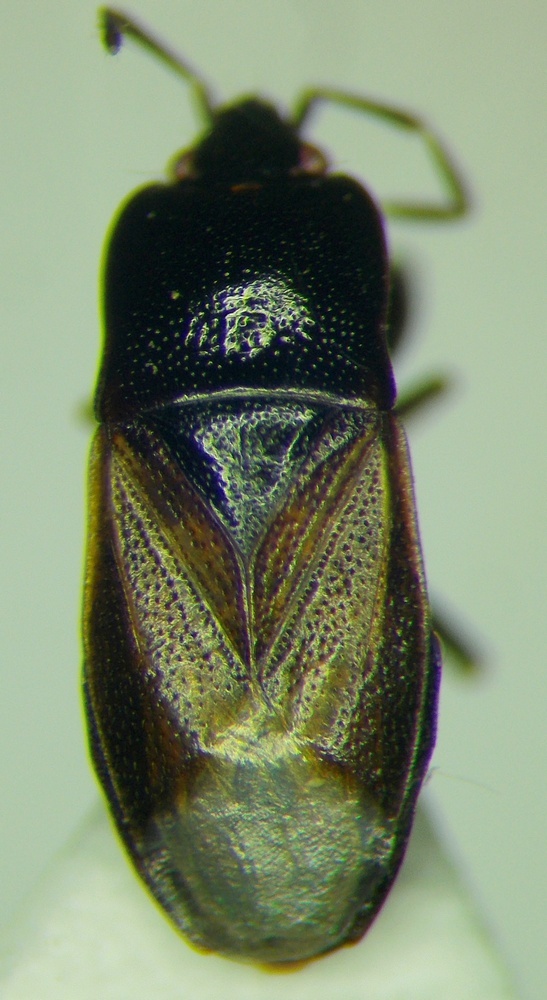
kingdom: Animalia
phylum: Arthropoda
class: Insecta
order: Hemiptera
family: Rhyparochromidae
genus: Plinthisus
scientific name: Plinthisus longicollis
